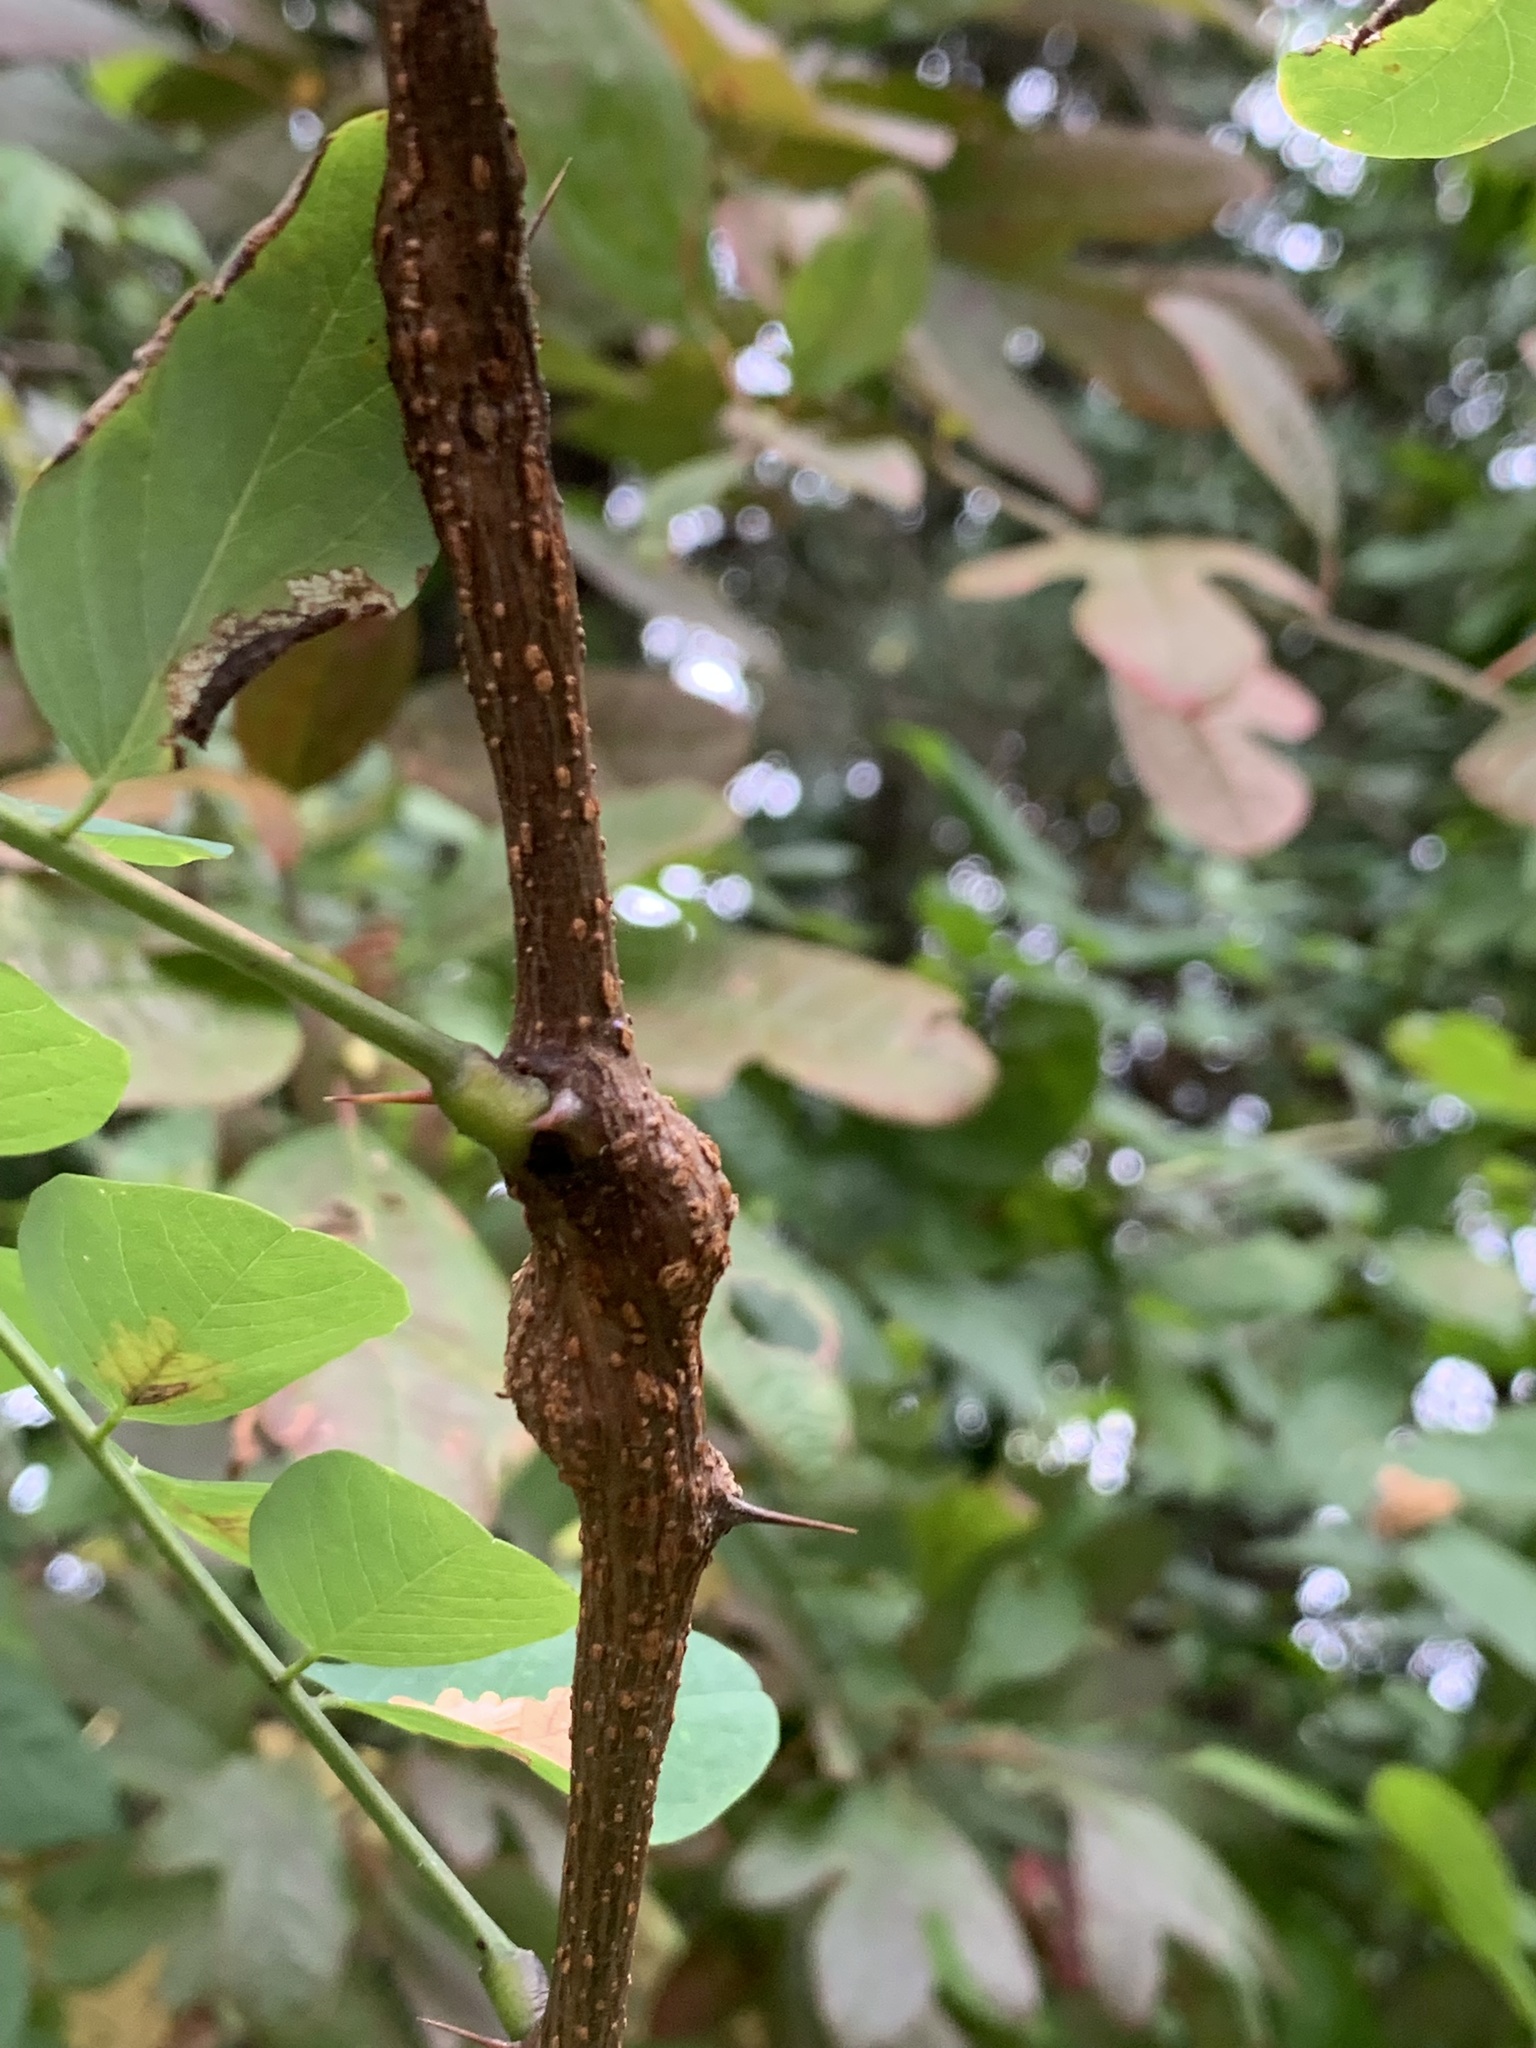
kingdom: Animalia
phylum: Arthropoda
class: Insecta
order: Lepidoptera
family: Tortricidae
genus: Ecdytolopha
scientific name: Ecdytolopha insiticiana
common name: Locust twig borer moth
